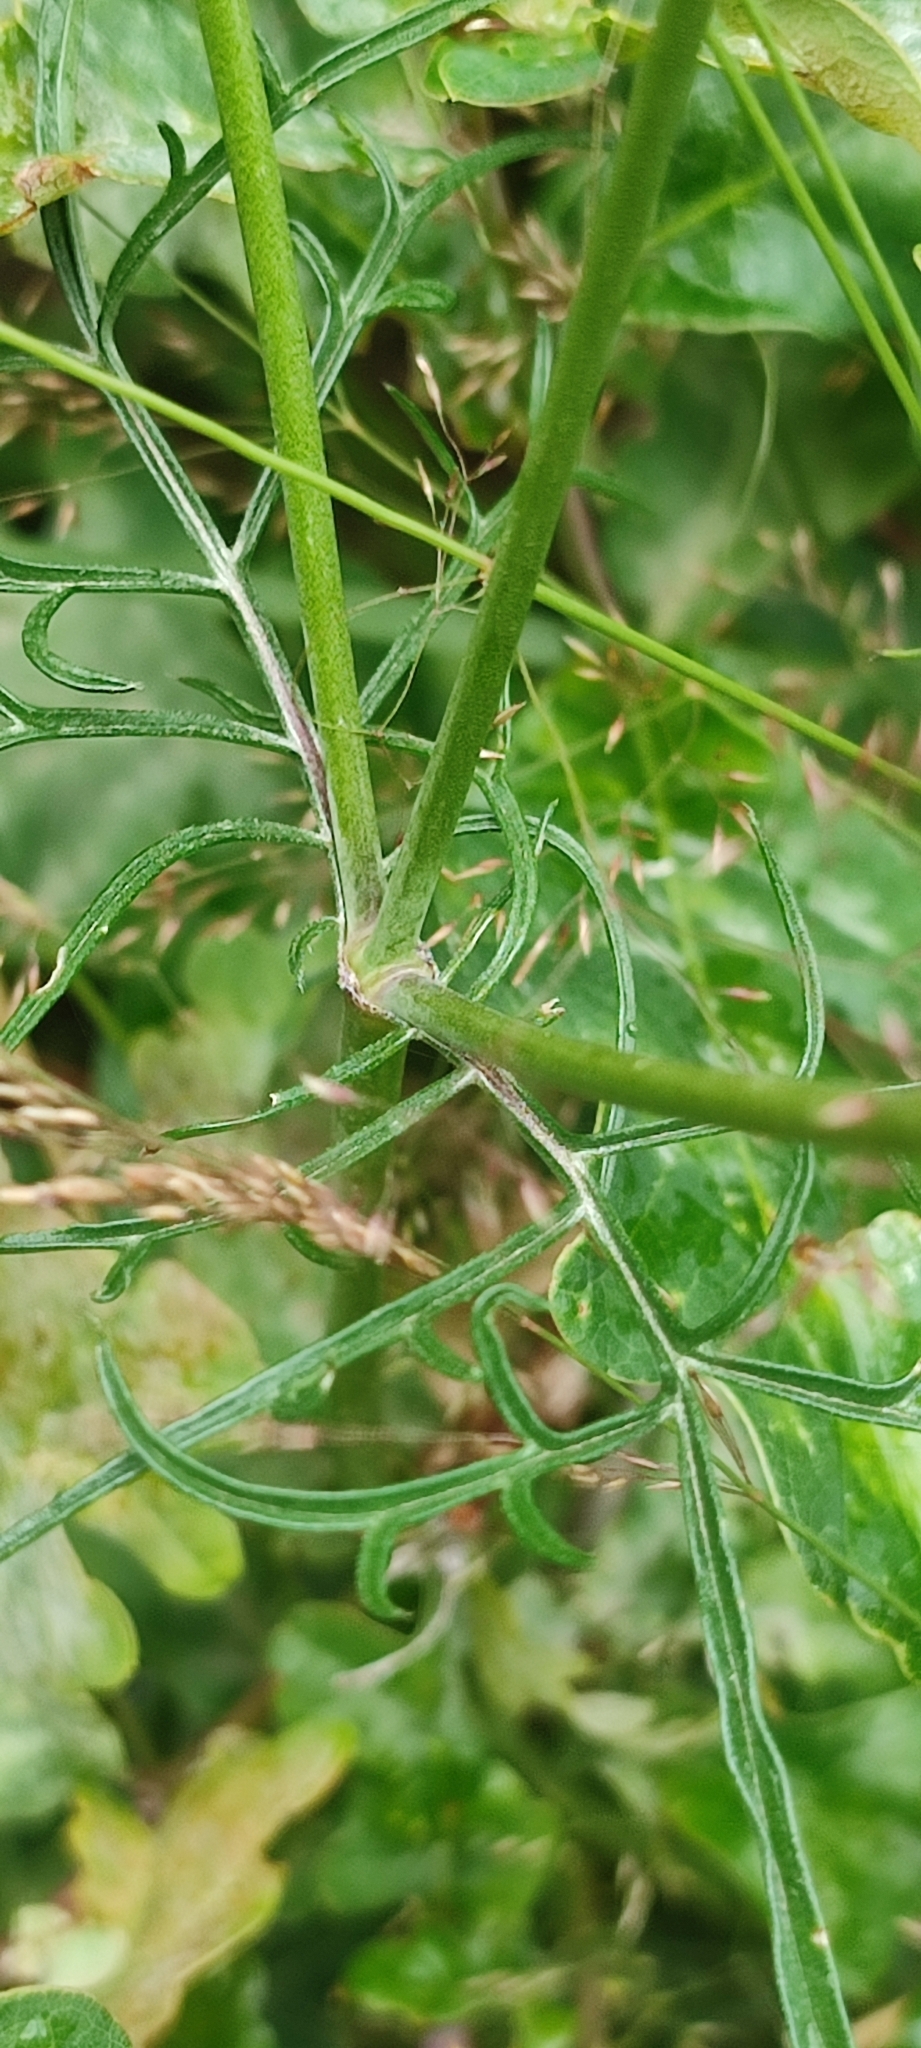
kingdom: Plantae
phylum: Tracheophyta
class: Magnoliopsida
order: Dipsacales
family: Caprifoliaceae
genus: Scabiosa
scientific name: Scabiosa columbaria
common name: Small scabious
